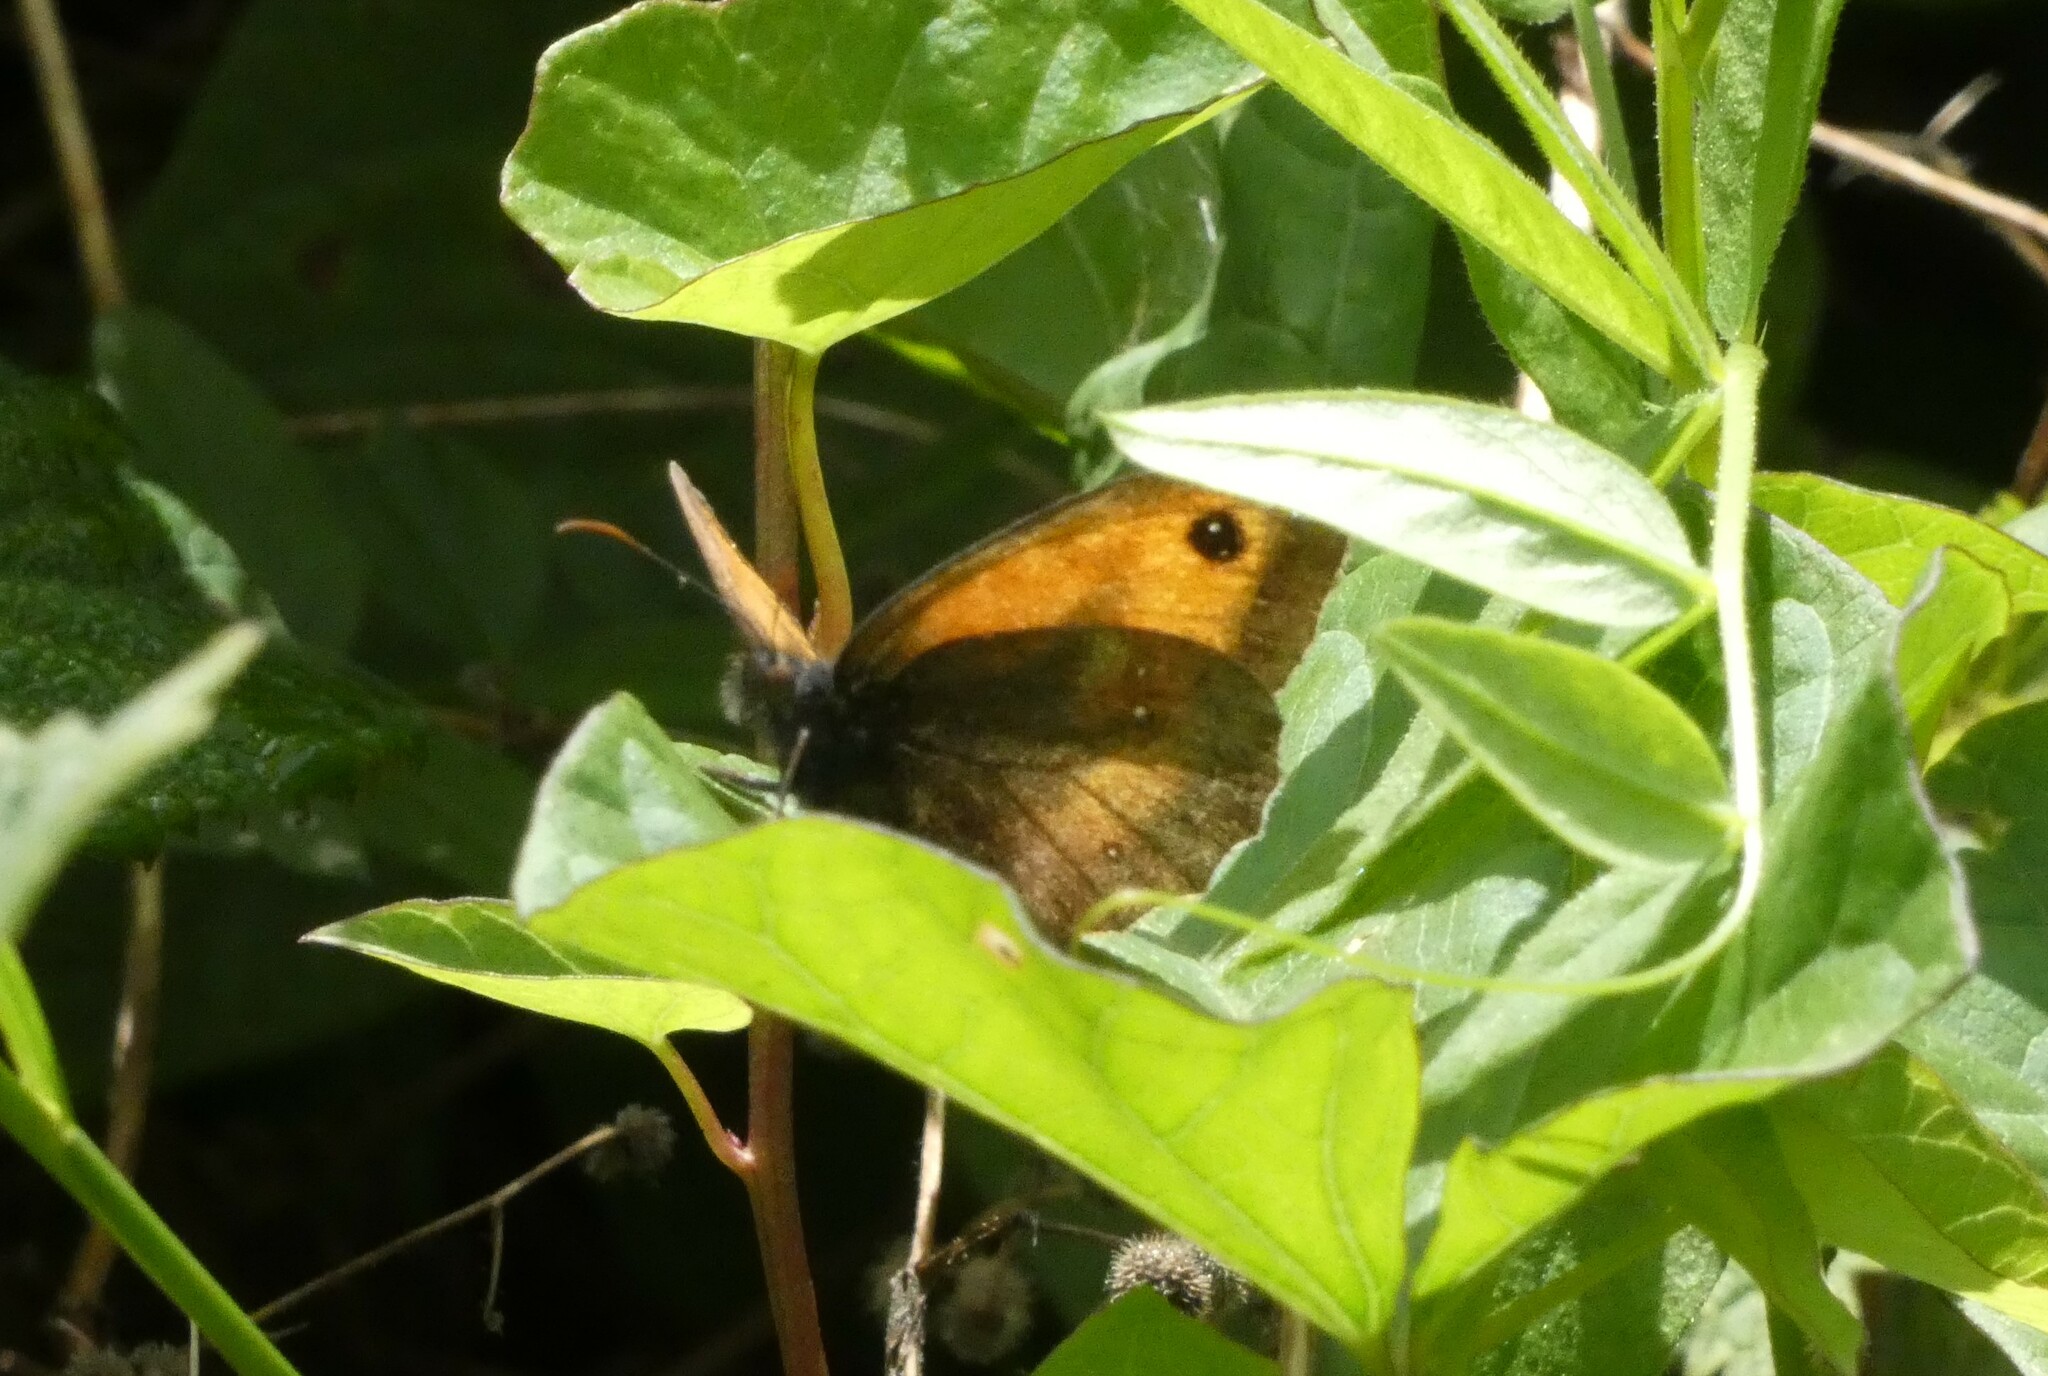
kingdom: Animalia
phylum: Arthropoda
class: Insecta
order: Lepidoptera
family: Nymphalidae
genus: Pyronia
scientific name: Pyronia tithonus
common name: Gatekeeper
